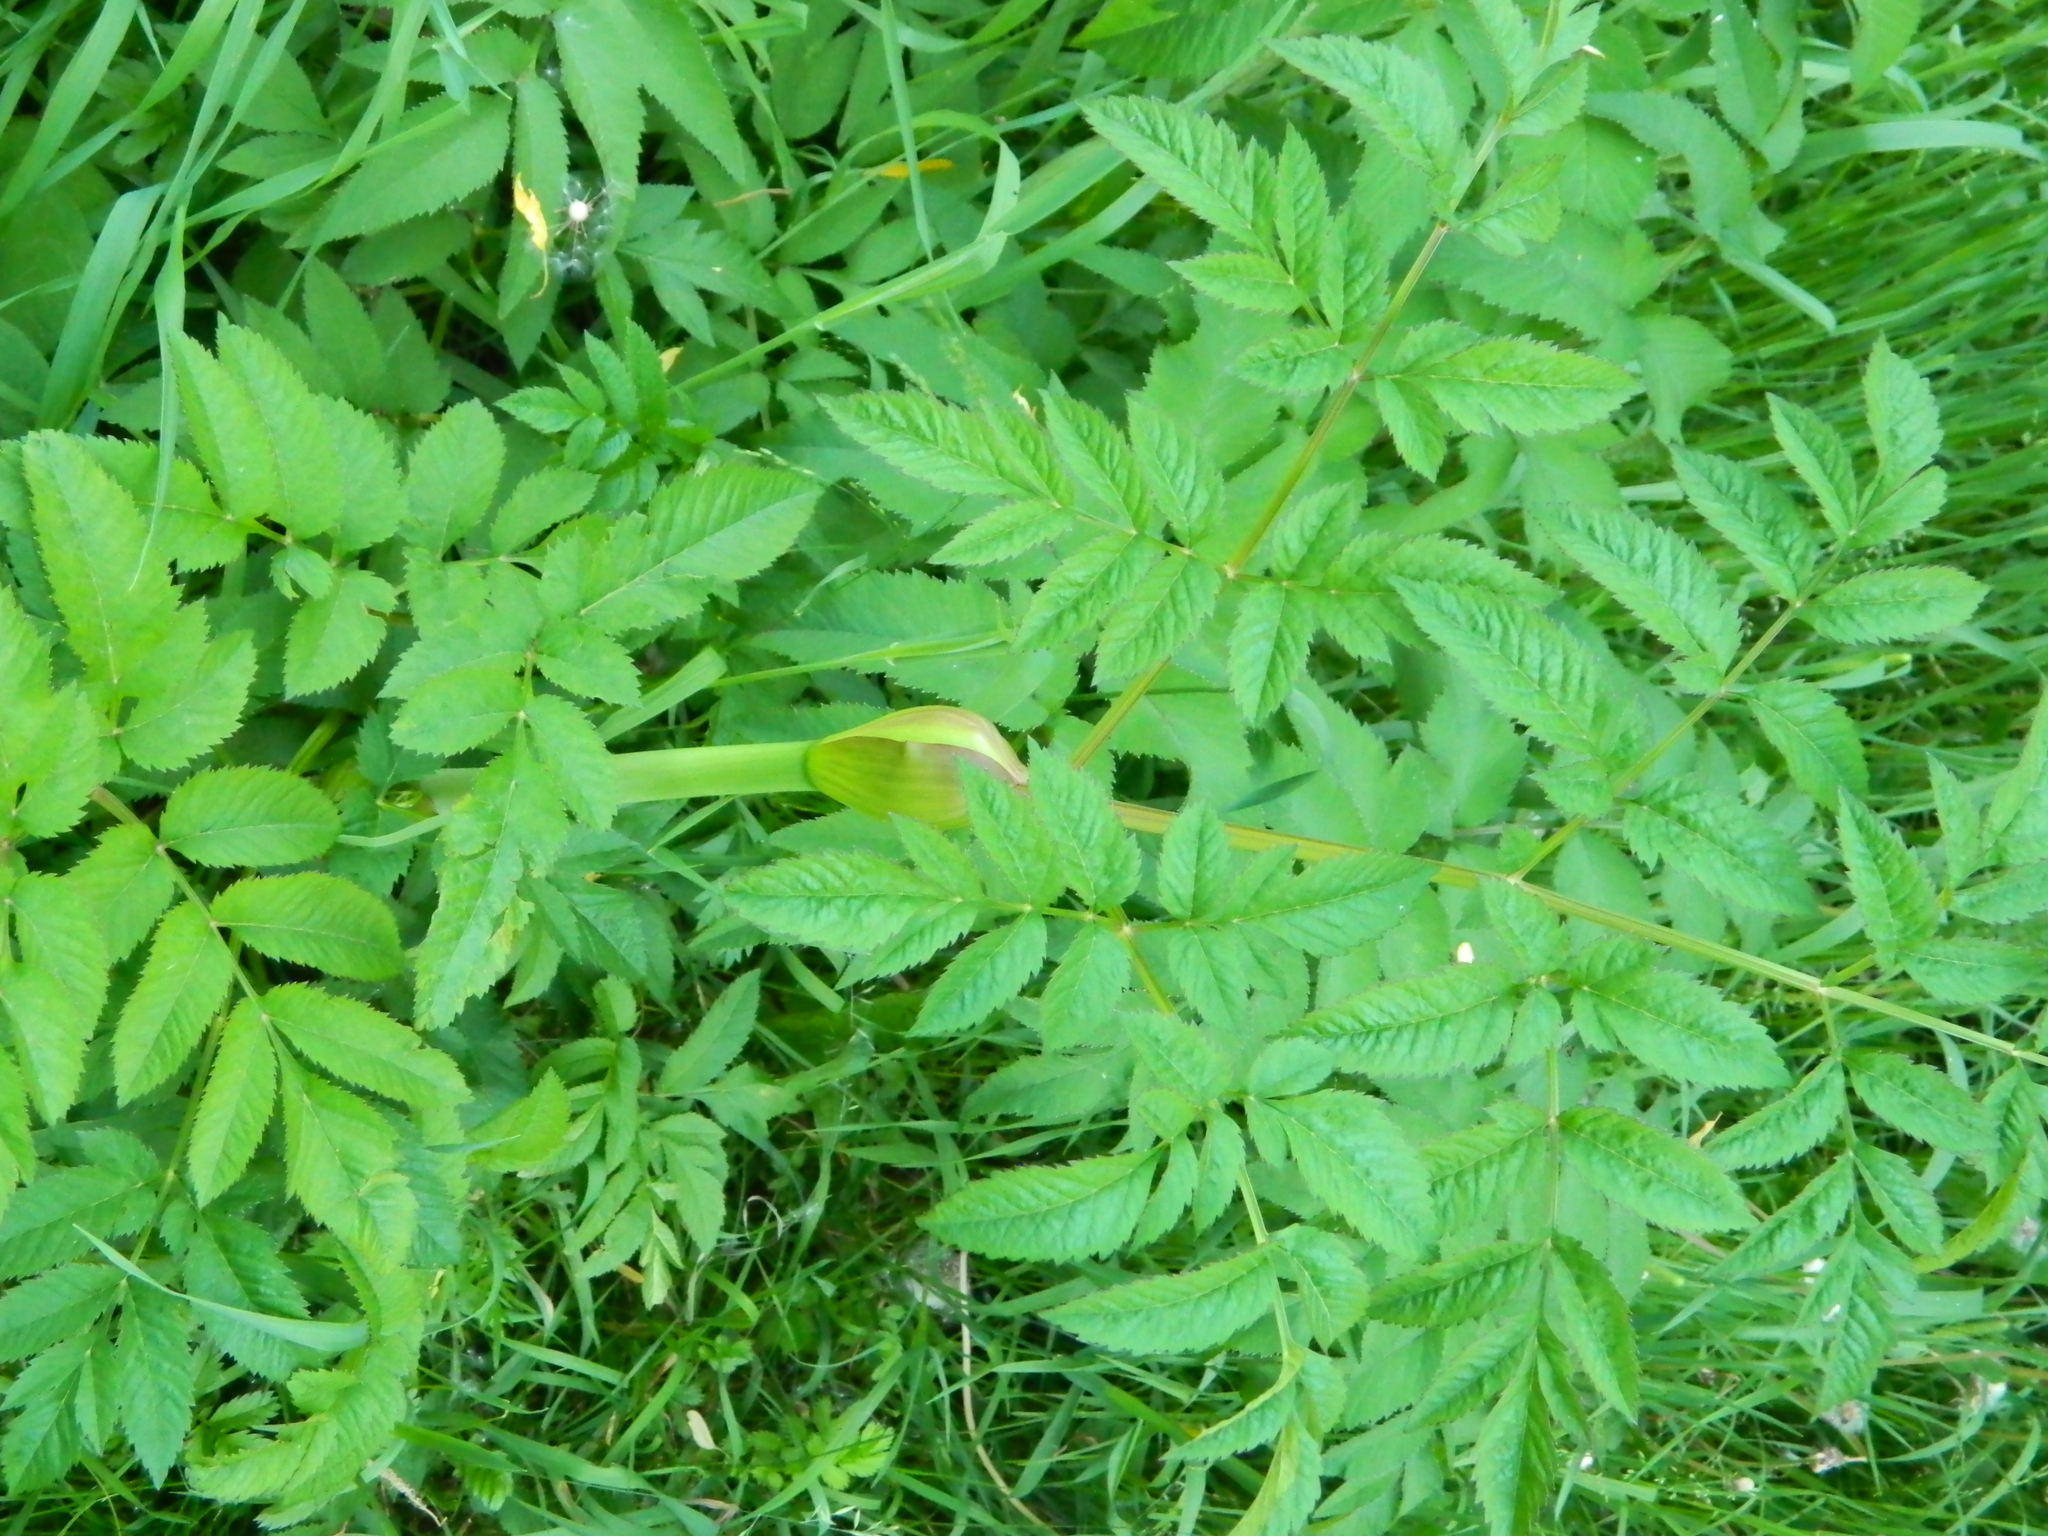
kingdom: Plantae
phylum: Tracheophyta
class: Magnoliopsida
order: Apiales
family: Apiaceae
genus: Angelica
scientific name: Angelica sylvestris
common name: Wild angelica
